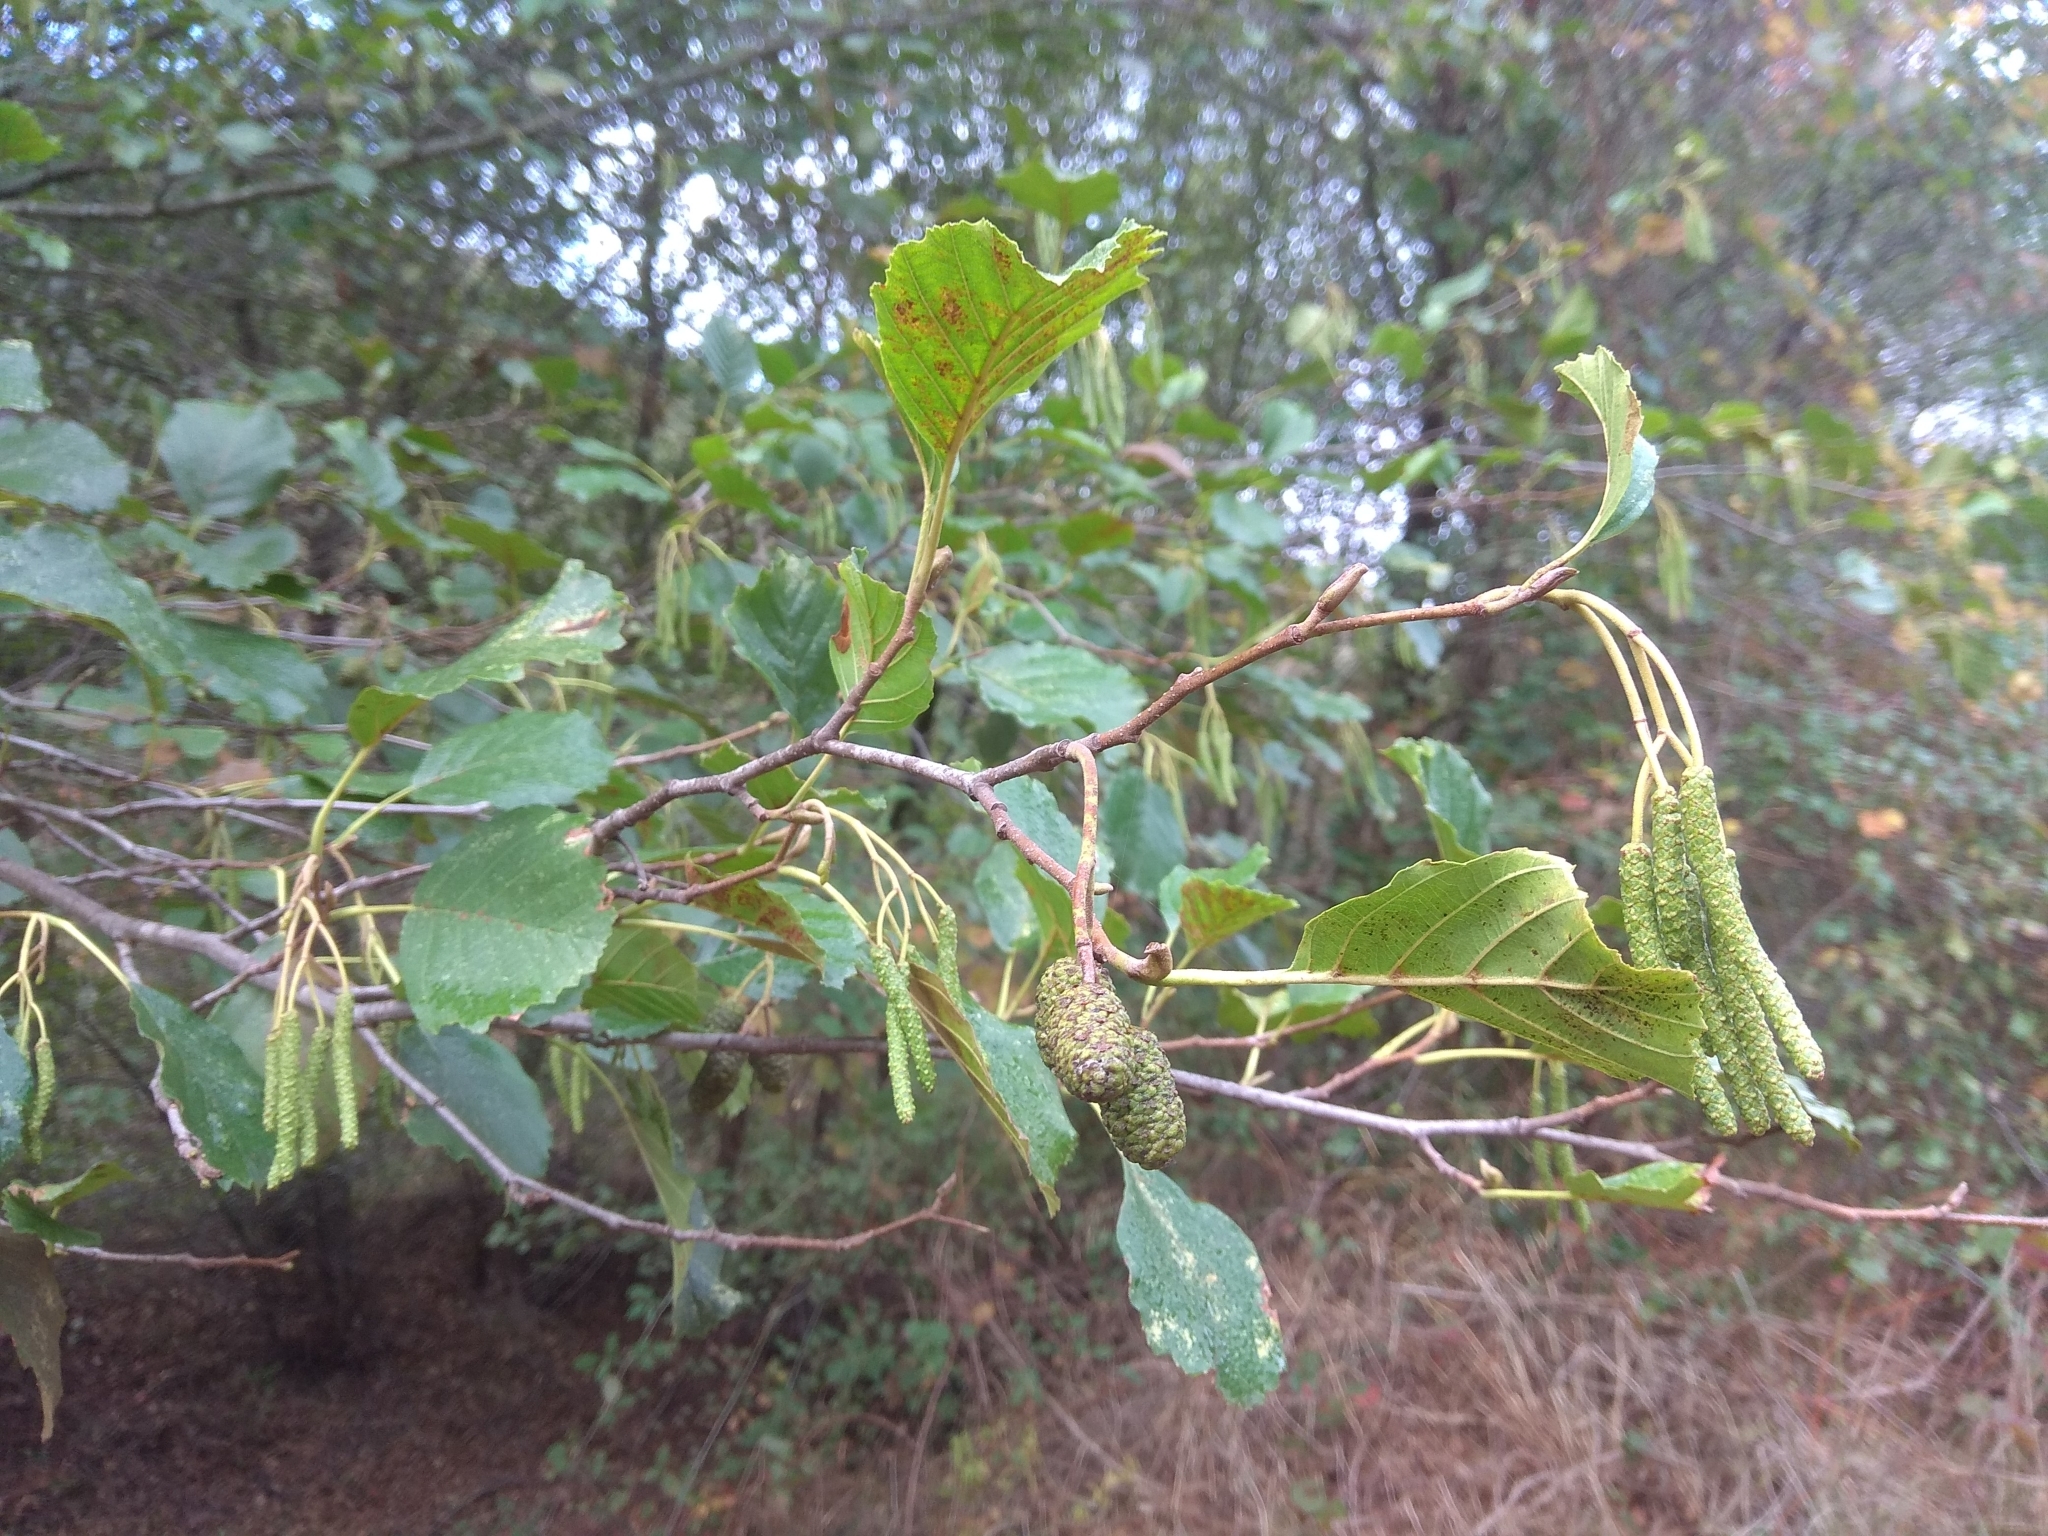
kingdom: Plantae
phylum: Tracheophyta
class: Magnoliopsida
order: Fagales
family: Betulaceae
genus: Alnus
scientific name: Alnus lusitanica
